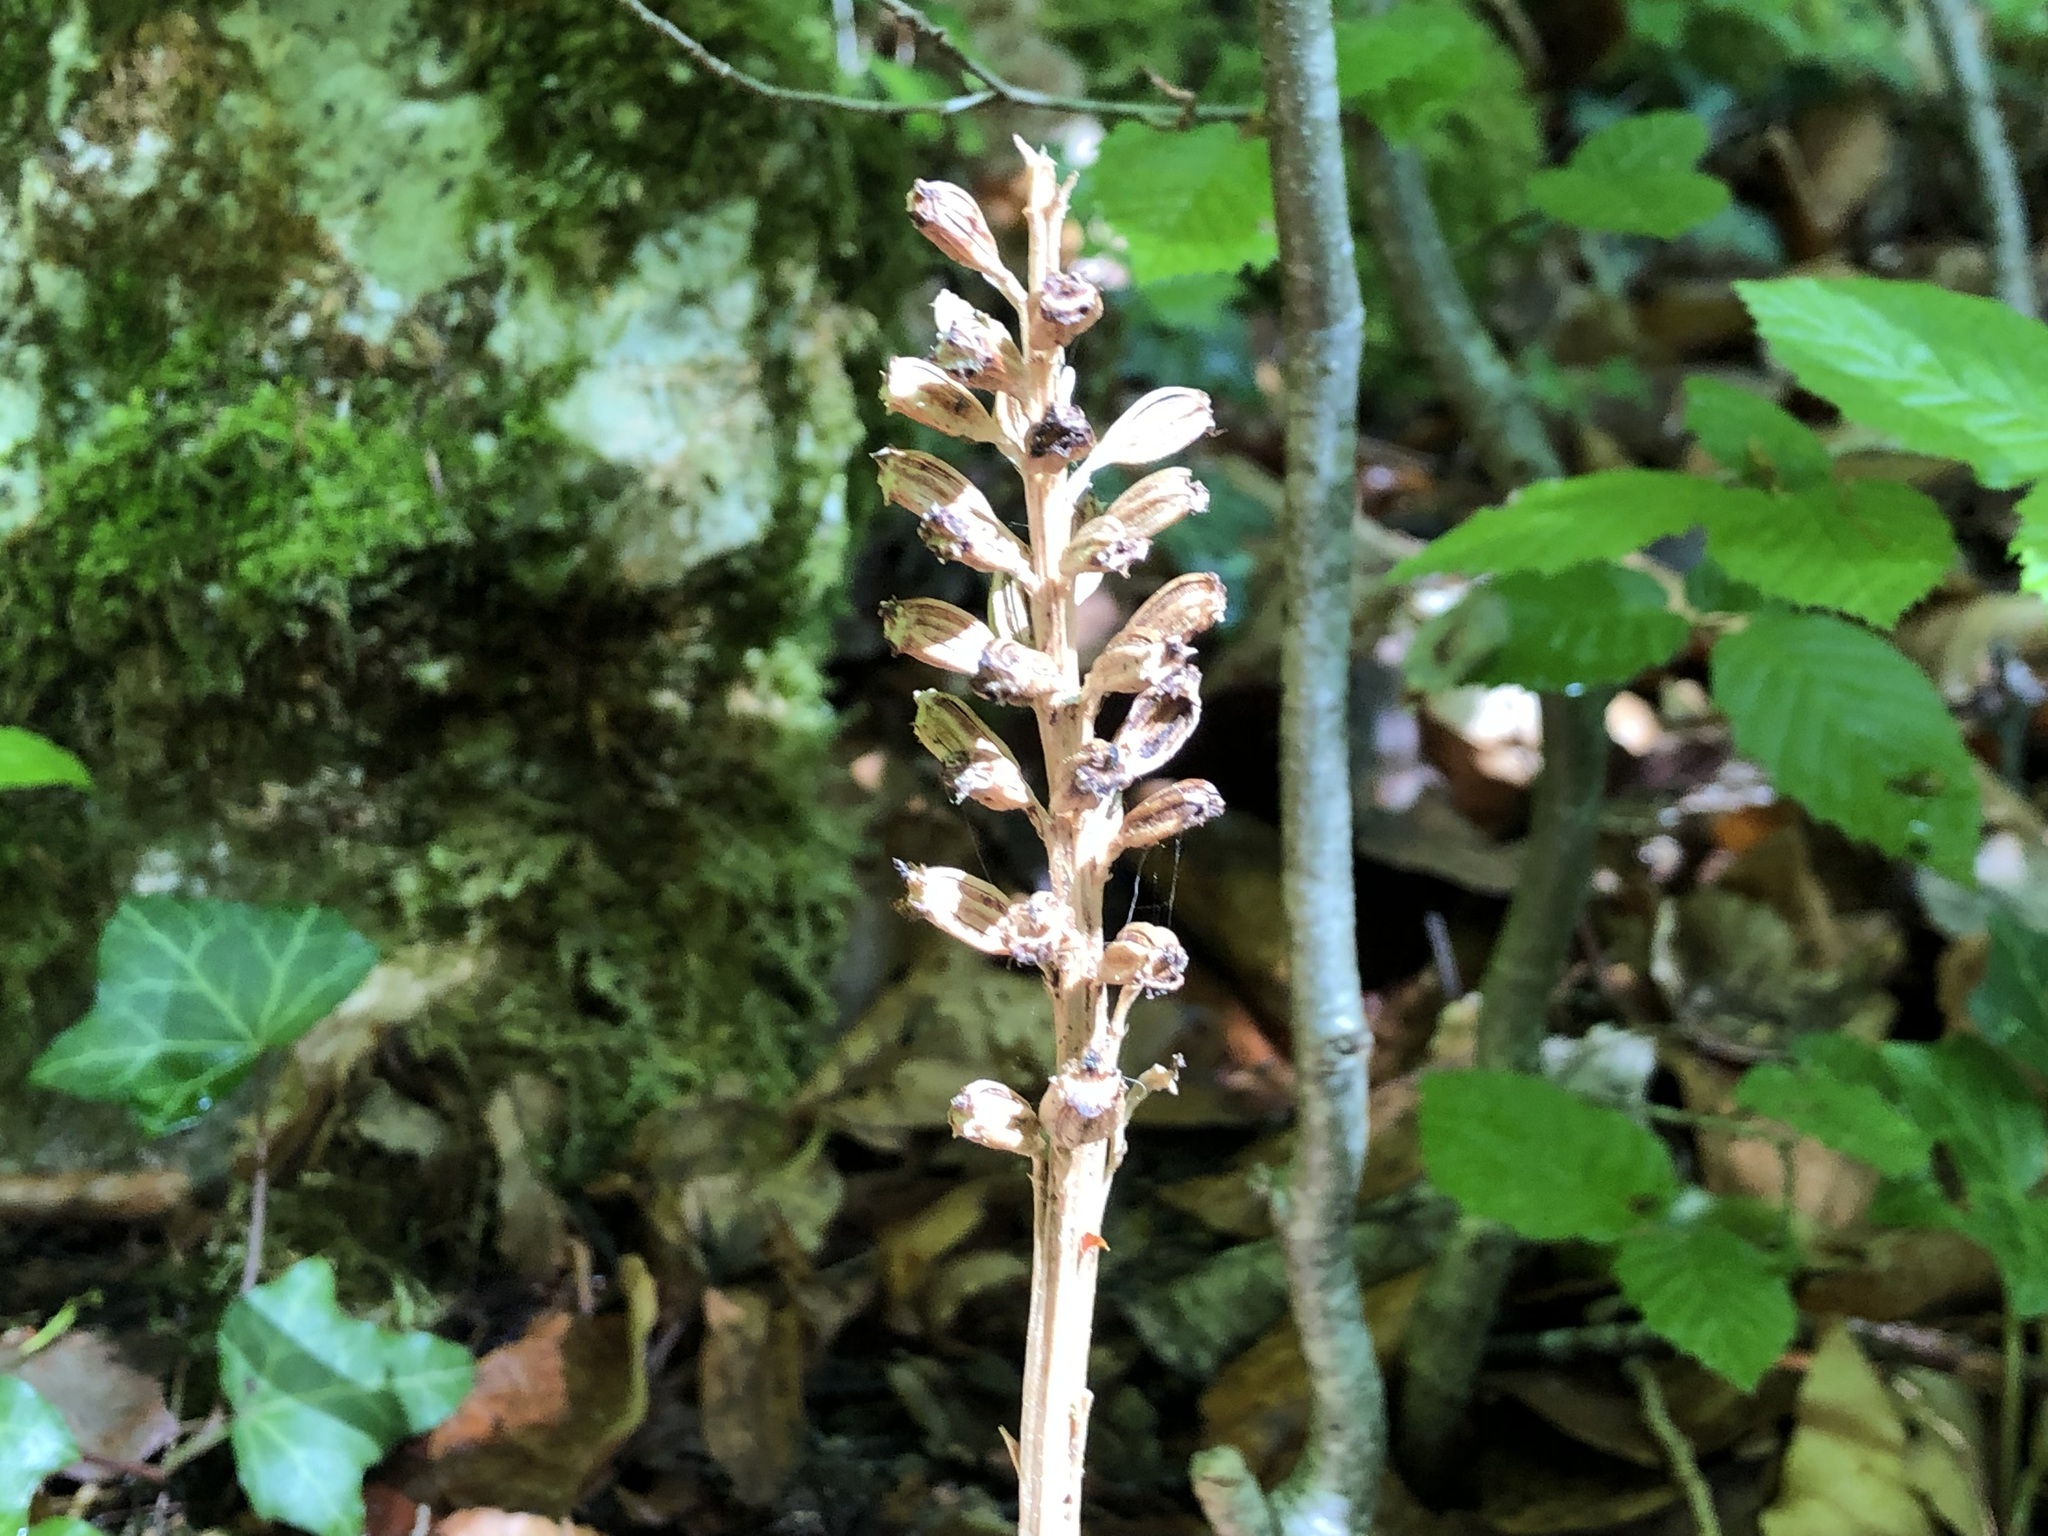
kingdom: Plantae
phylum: Tracheophyta
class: Liliopsida
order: Asparagales
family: Orchidaceae
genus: Neottia
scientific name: Neottia nidus-avis
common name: Bird's-nest orchid
